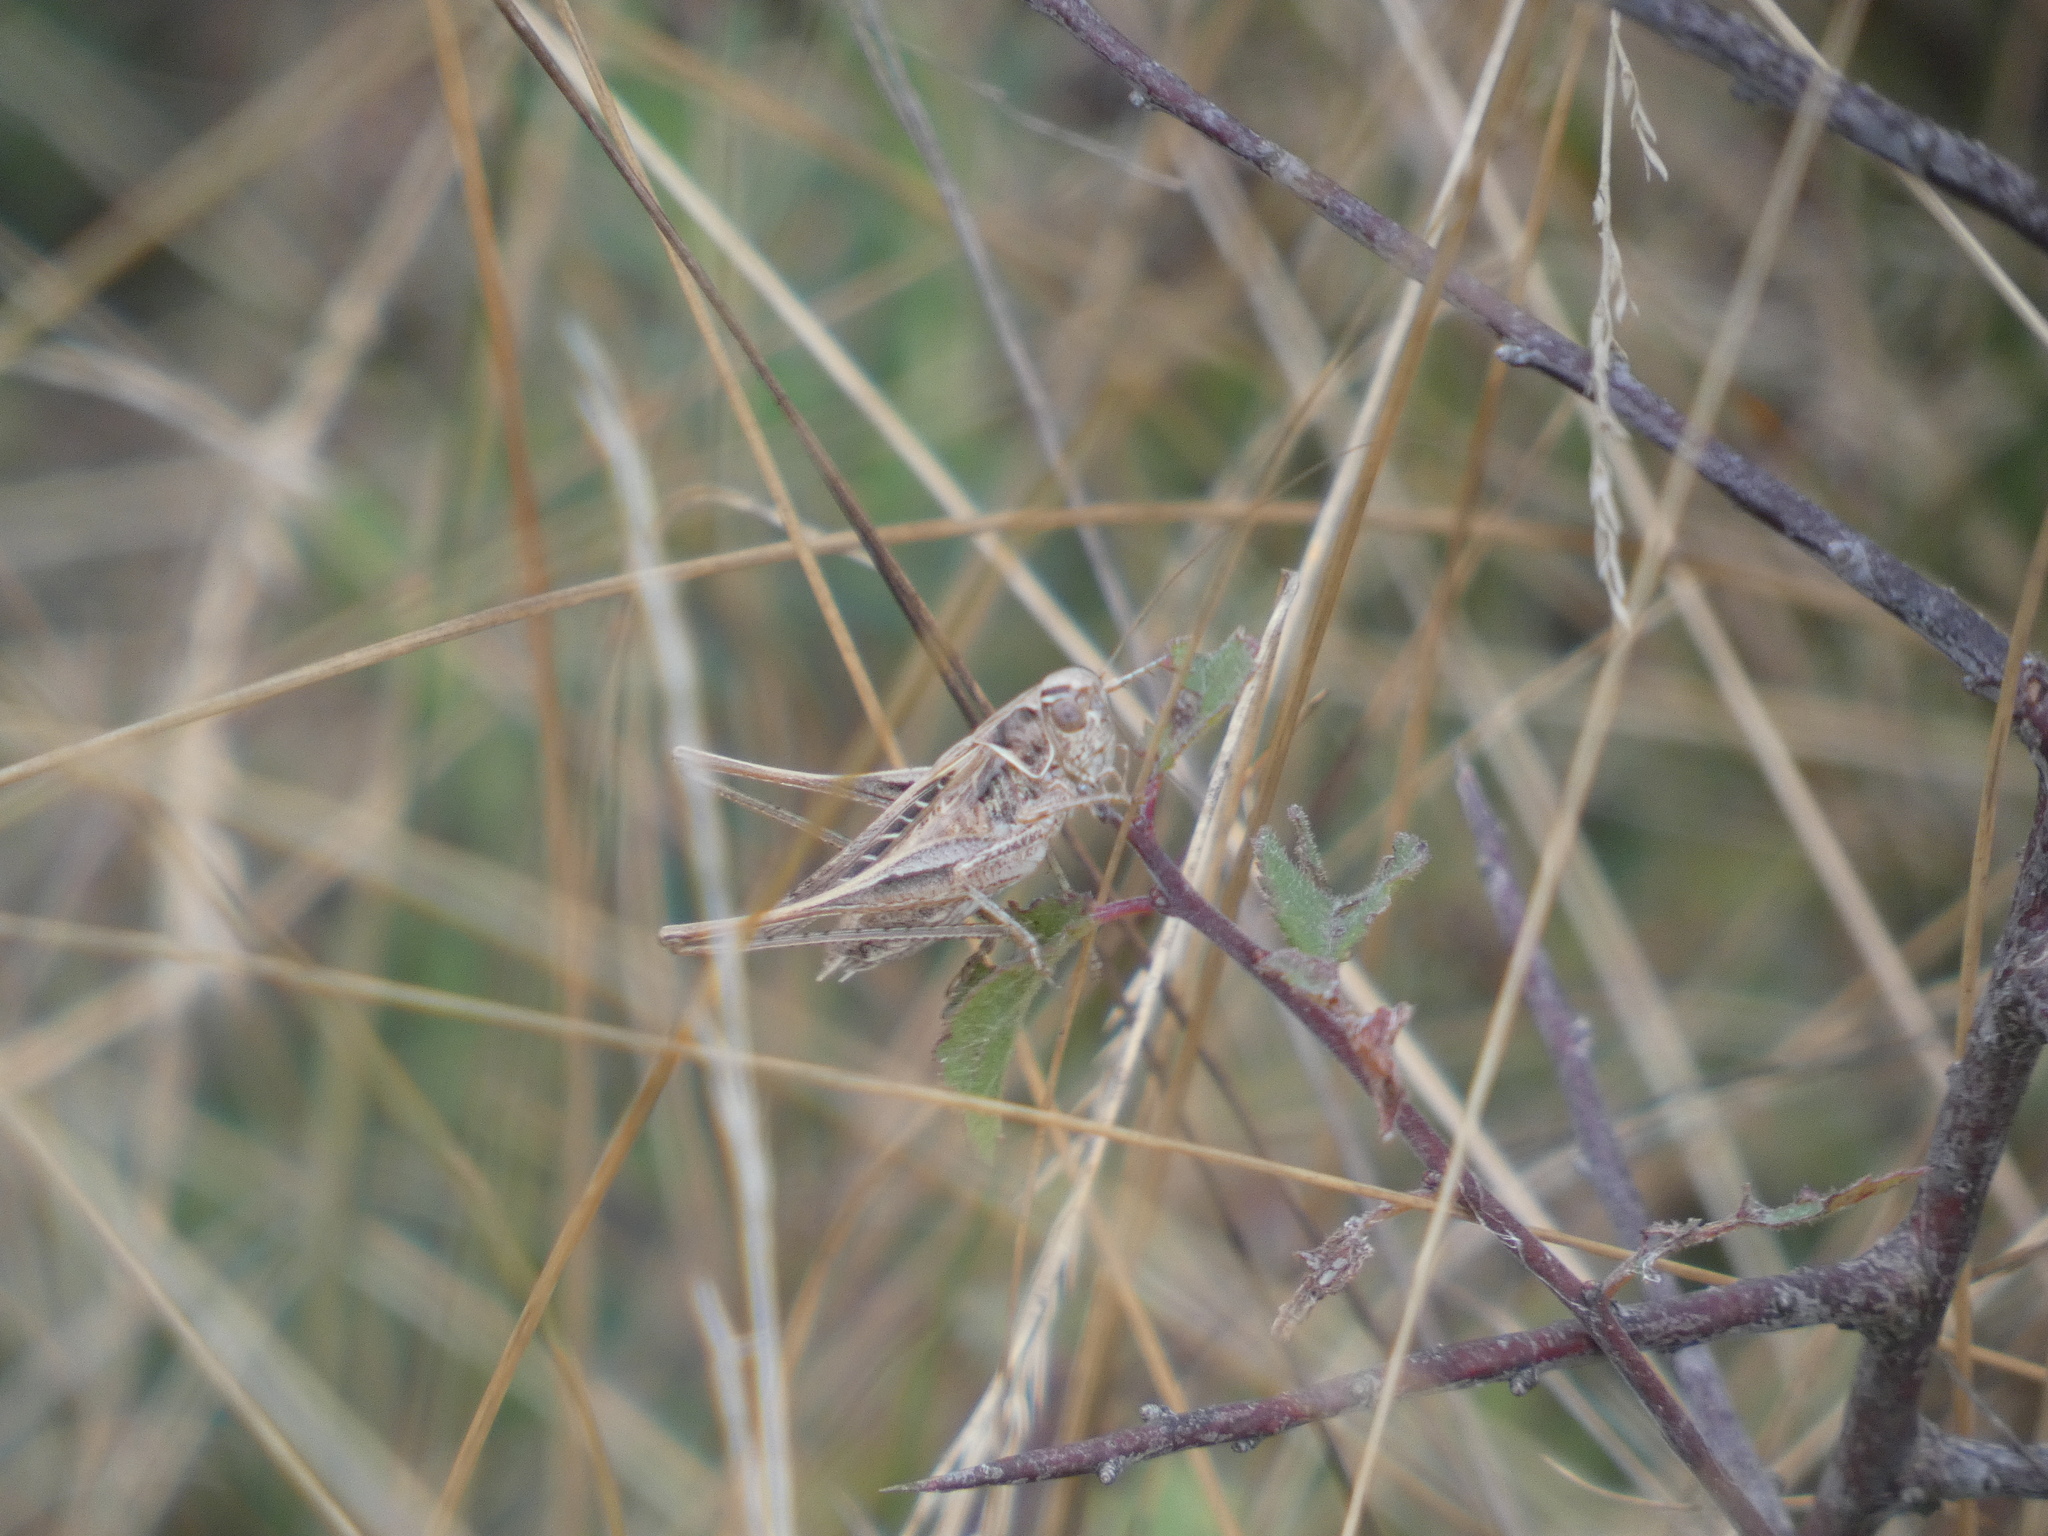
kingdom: Animalia
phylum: Arthropoda
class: Insecta
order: Orthoptera
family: Tettigoniidae
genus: Tessellana
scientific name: Tessellana tessellata
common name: Grasshopper
